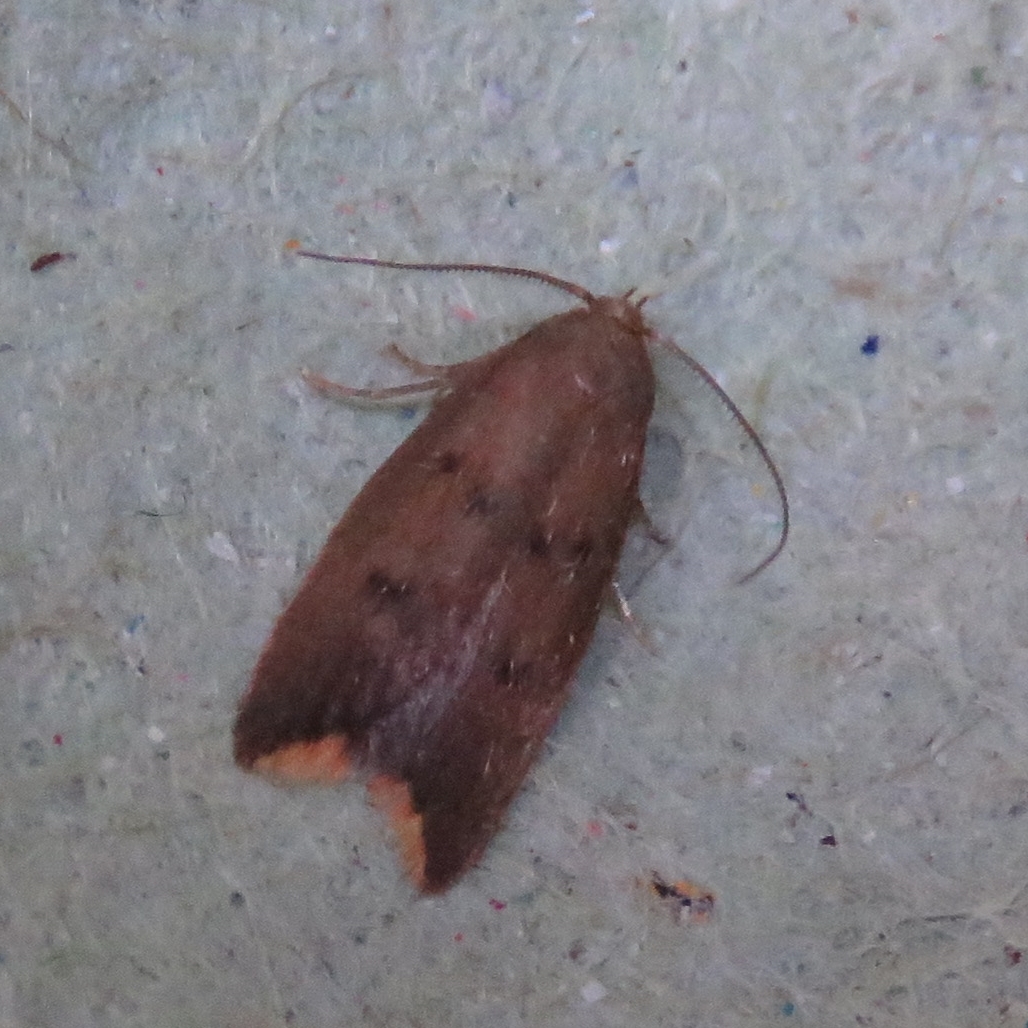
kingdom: Animalia
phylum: Arthropoda
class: Insecta
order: Lepidoptera
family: Oecophoridae
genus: Tachystola
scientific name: Tachystola acroxantha
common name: Ruddy streak
